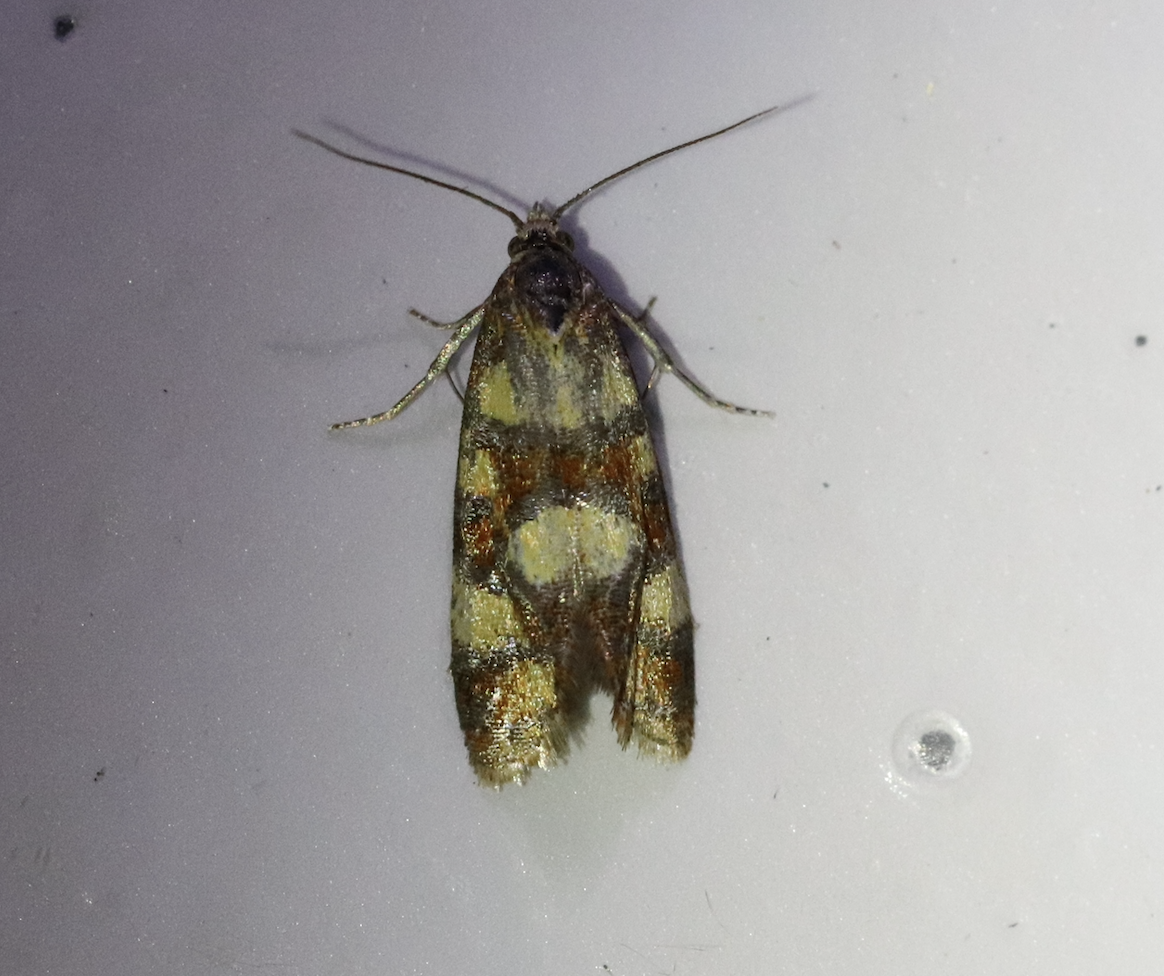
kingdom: Animalia
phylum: Arthropoda
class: Insecta
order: Lepidoptera
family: Tortricidae
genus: Aethes
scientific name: Aethes tesserana
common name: Downland conch
